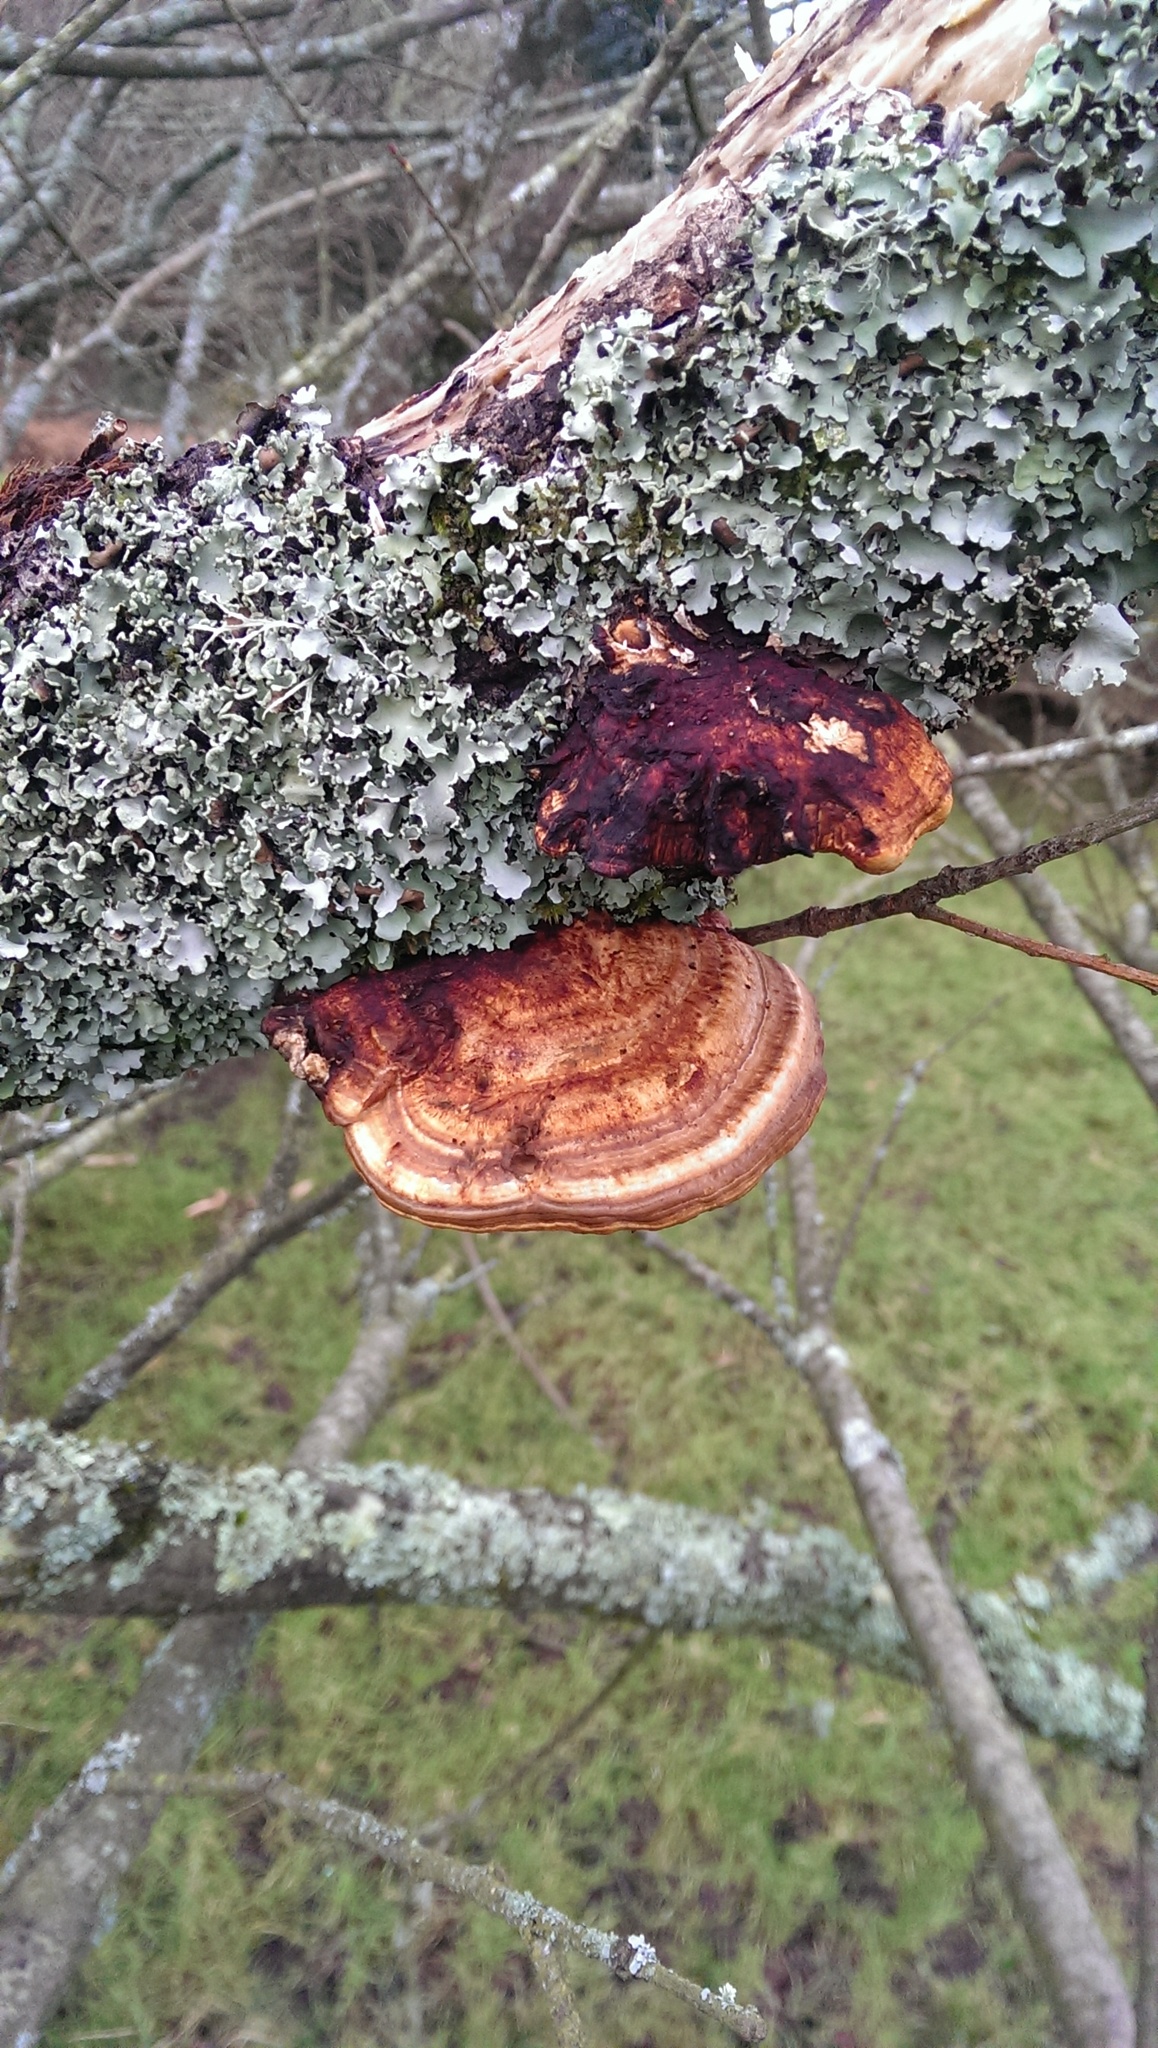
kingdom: Fungi
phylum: Basidiomycota
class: Agaricomycetes
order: Polyporales
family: Polyporaceae
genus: Daedaleopsis
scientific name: Daedaleopsis confragosa
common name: Blushing bracket
